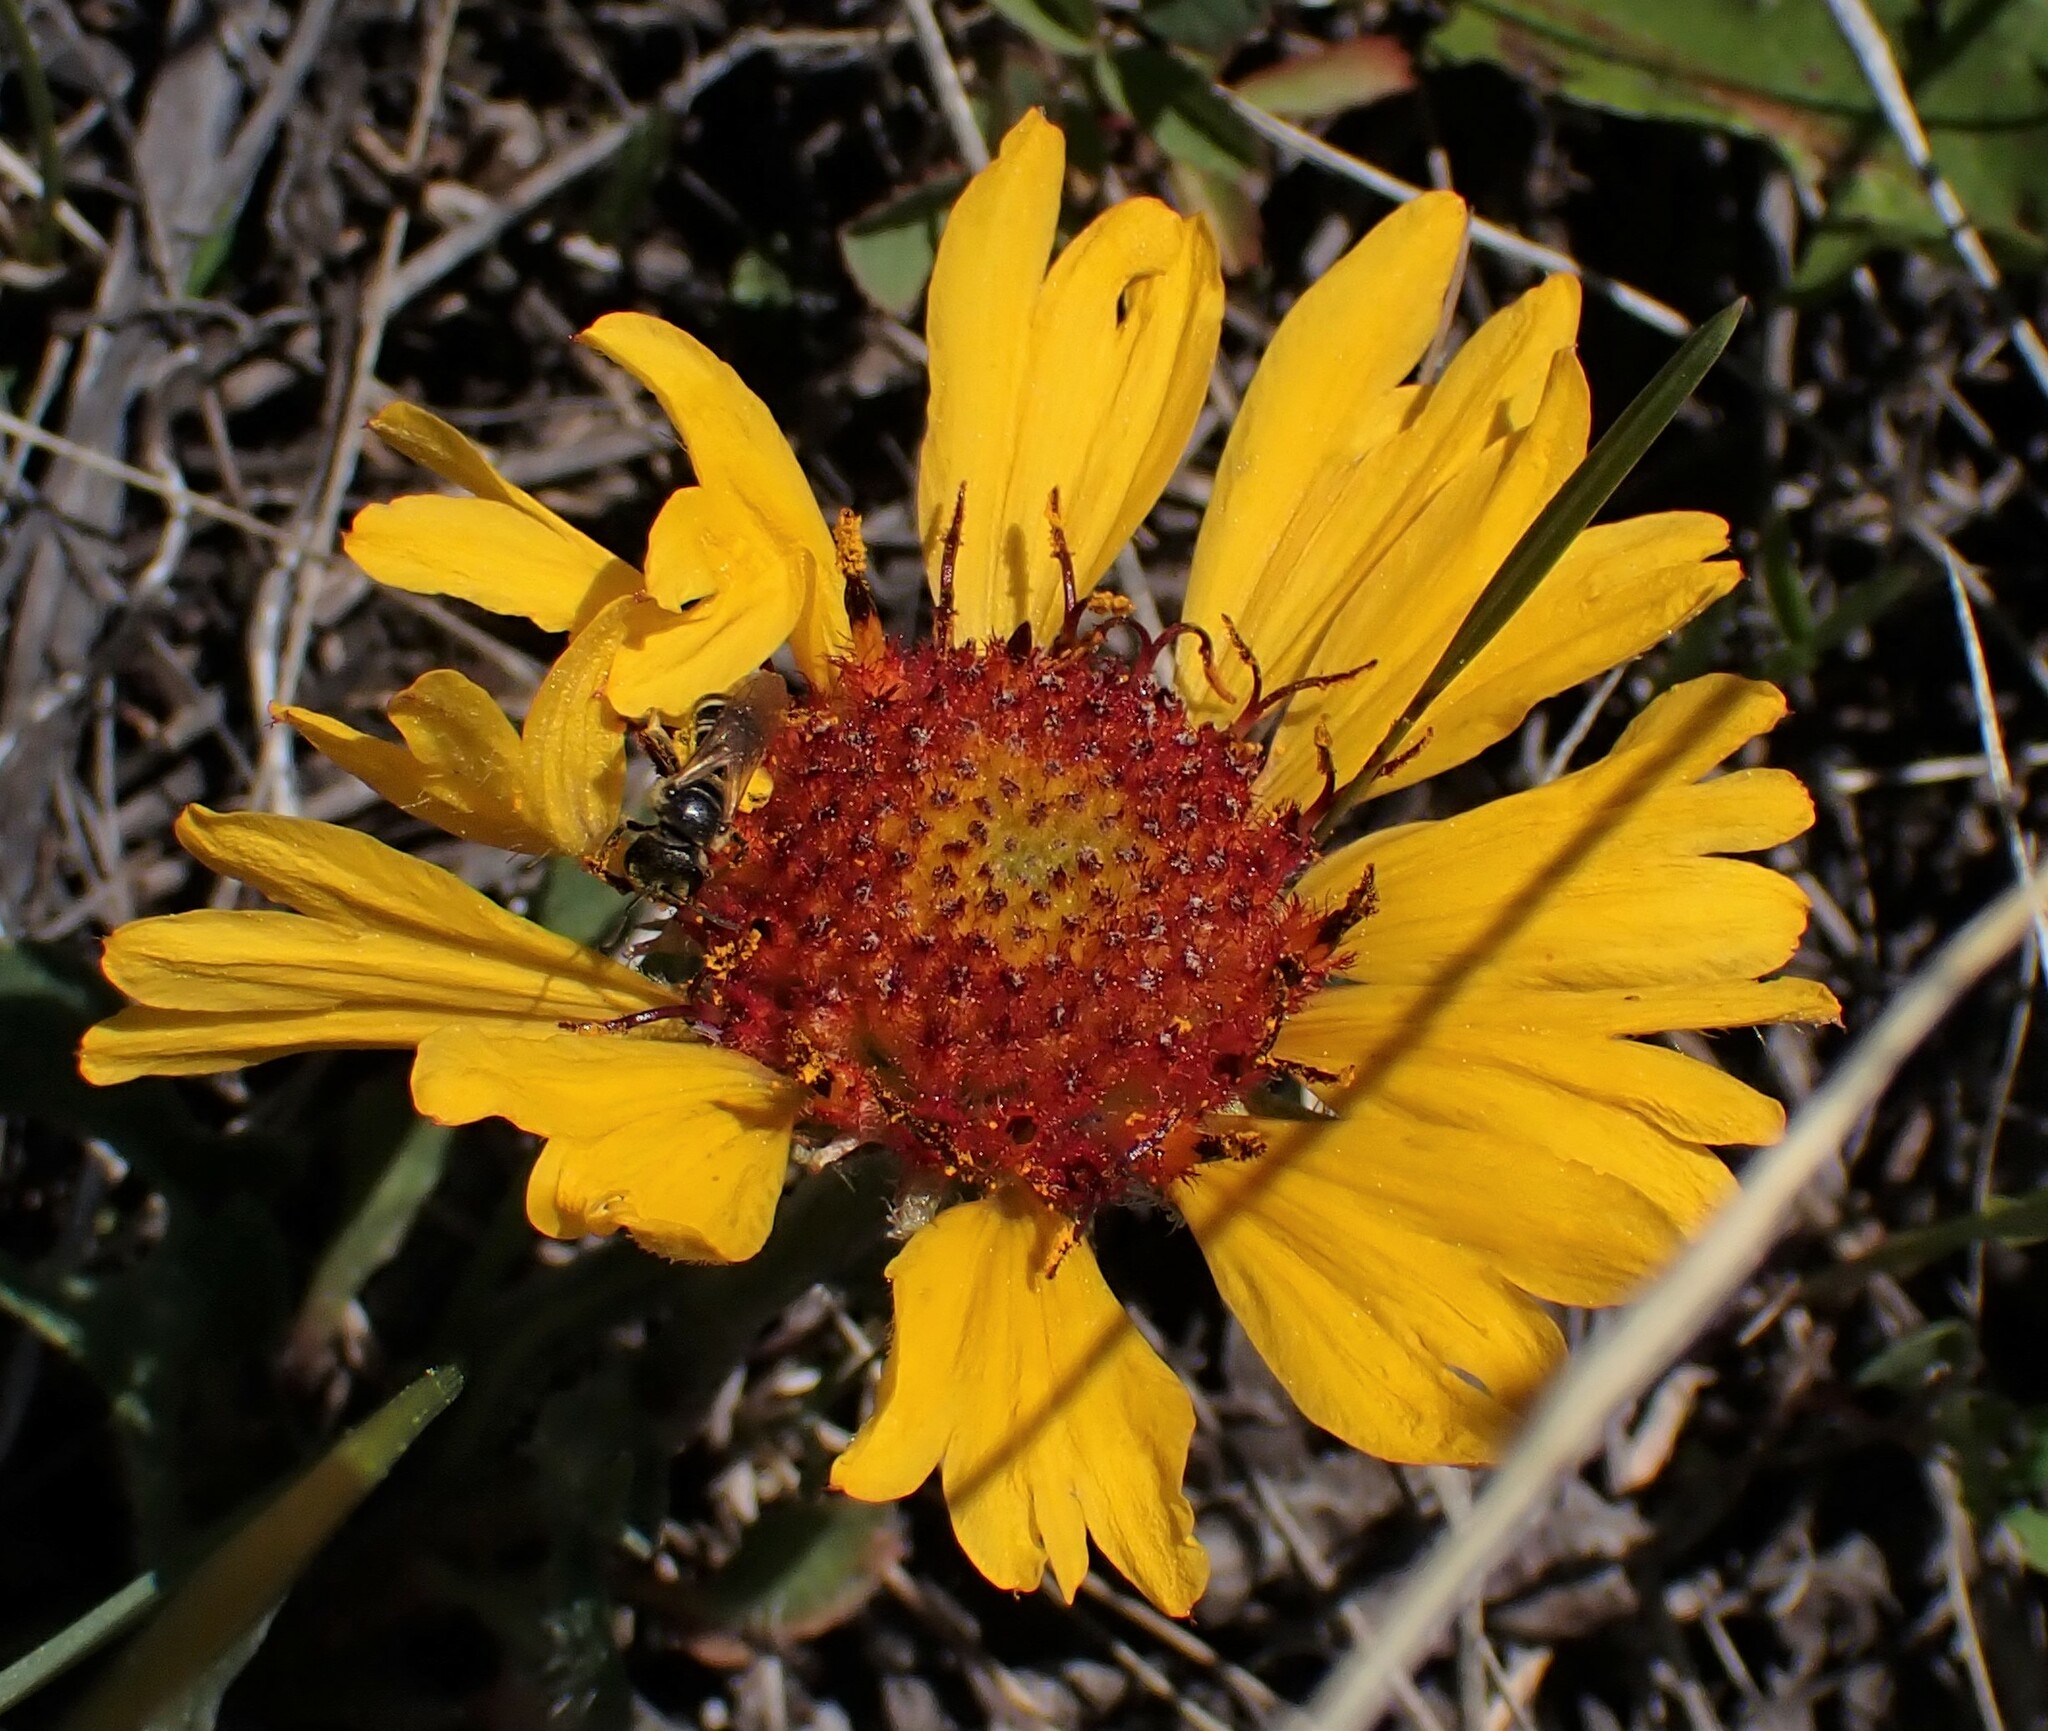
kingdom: Plantae
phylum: Tracheophyta
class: Magnoliopsida
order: Asterales
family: Asteraceae
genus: Gaillardia
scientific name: Gaillardia aristata
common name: Blanket-flower
